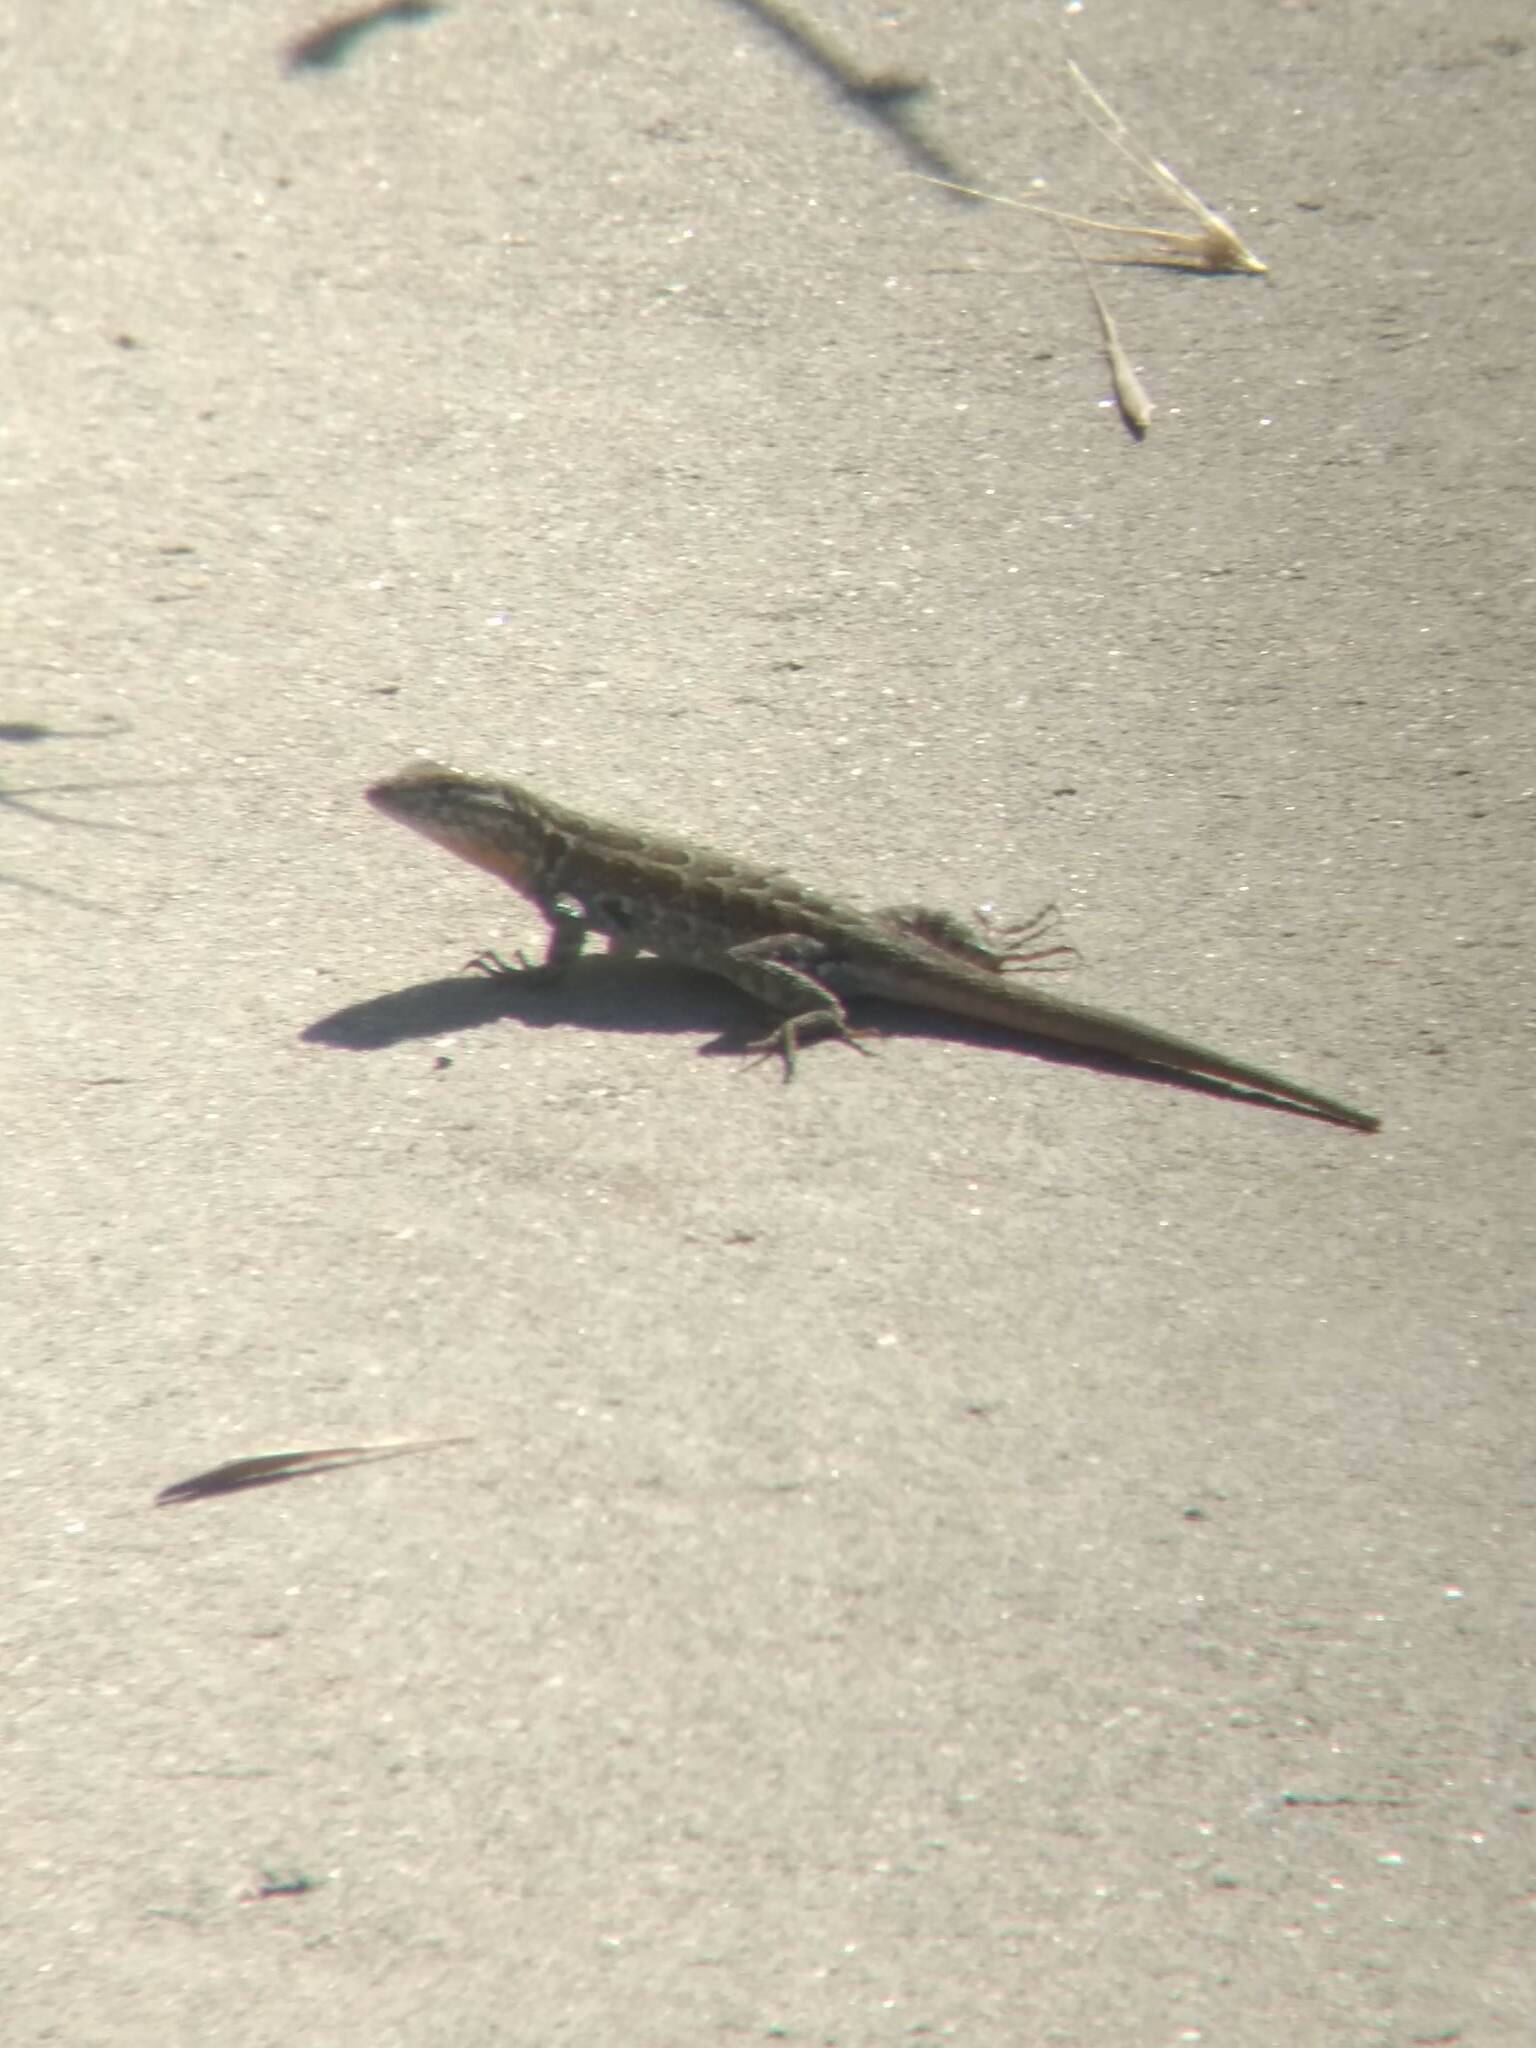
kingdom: Animalia
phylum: Chordata
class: Squamata
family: Phrynosomatidae
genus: Uta
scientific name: Uta stansburiana
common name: Side-blotched lizard
